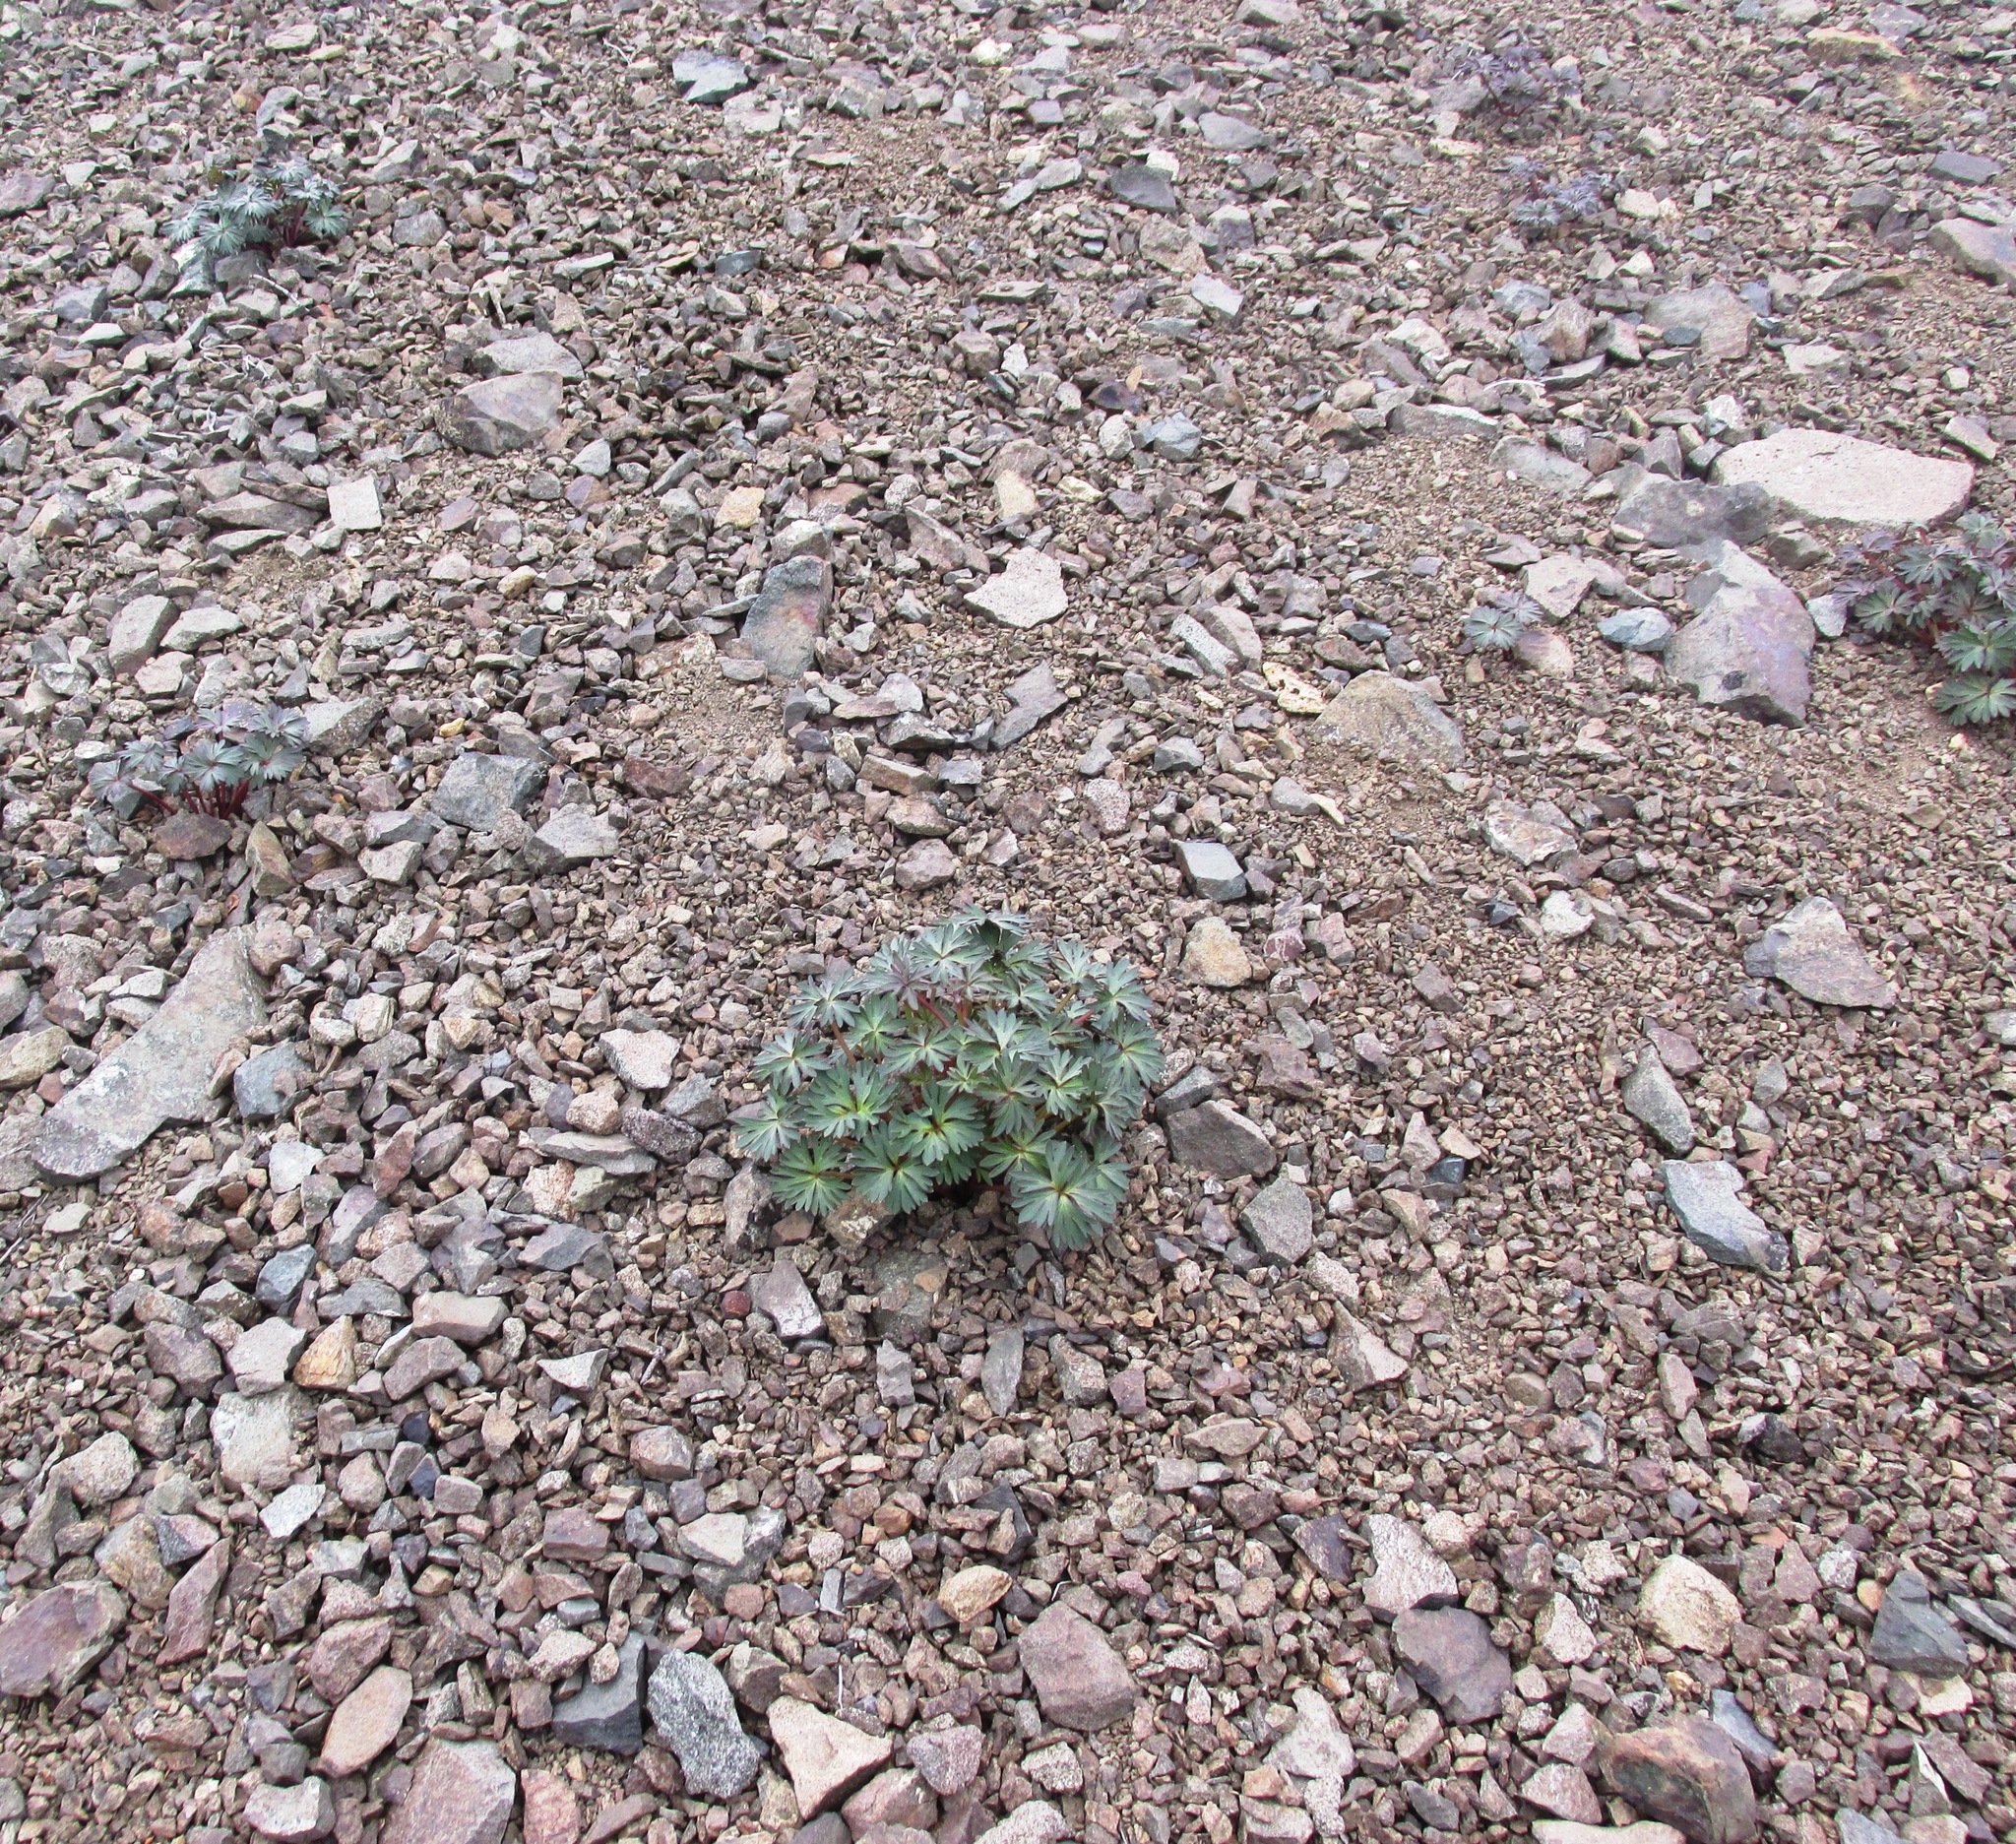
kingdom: Plantae
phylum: Tracheophyta
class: Magnoliopsida
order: Ranunculales
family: Ranunculaceae
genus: Delphinium
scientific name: Delphinium glareosum
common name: Olympic mountain larkspur
